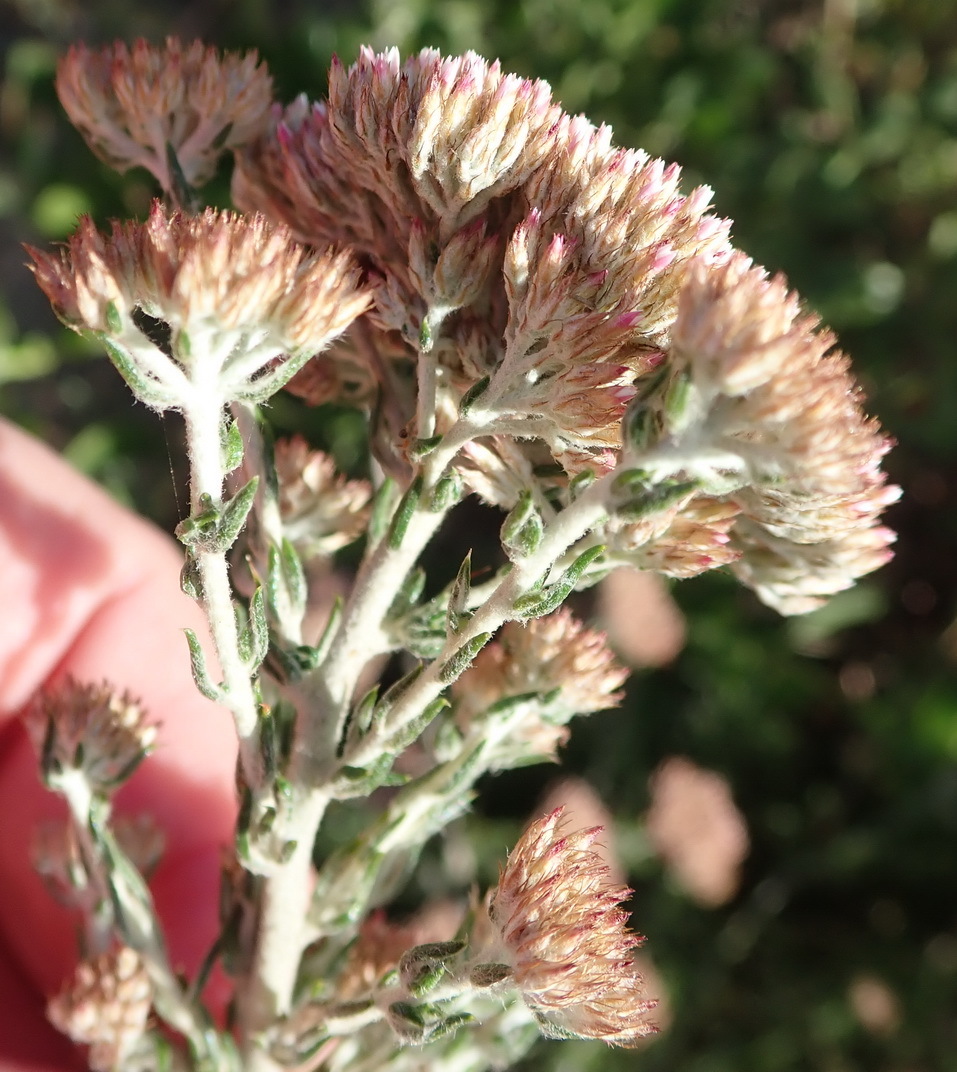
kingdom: Plantae
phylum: Tracheophyta
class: Magnoliopsida
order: Asterales
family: Asteraceae
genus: Metalasia
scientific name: Metalasia pungens
